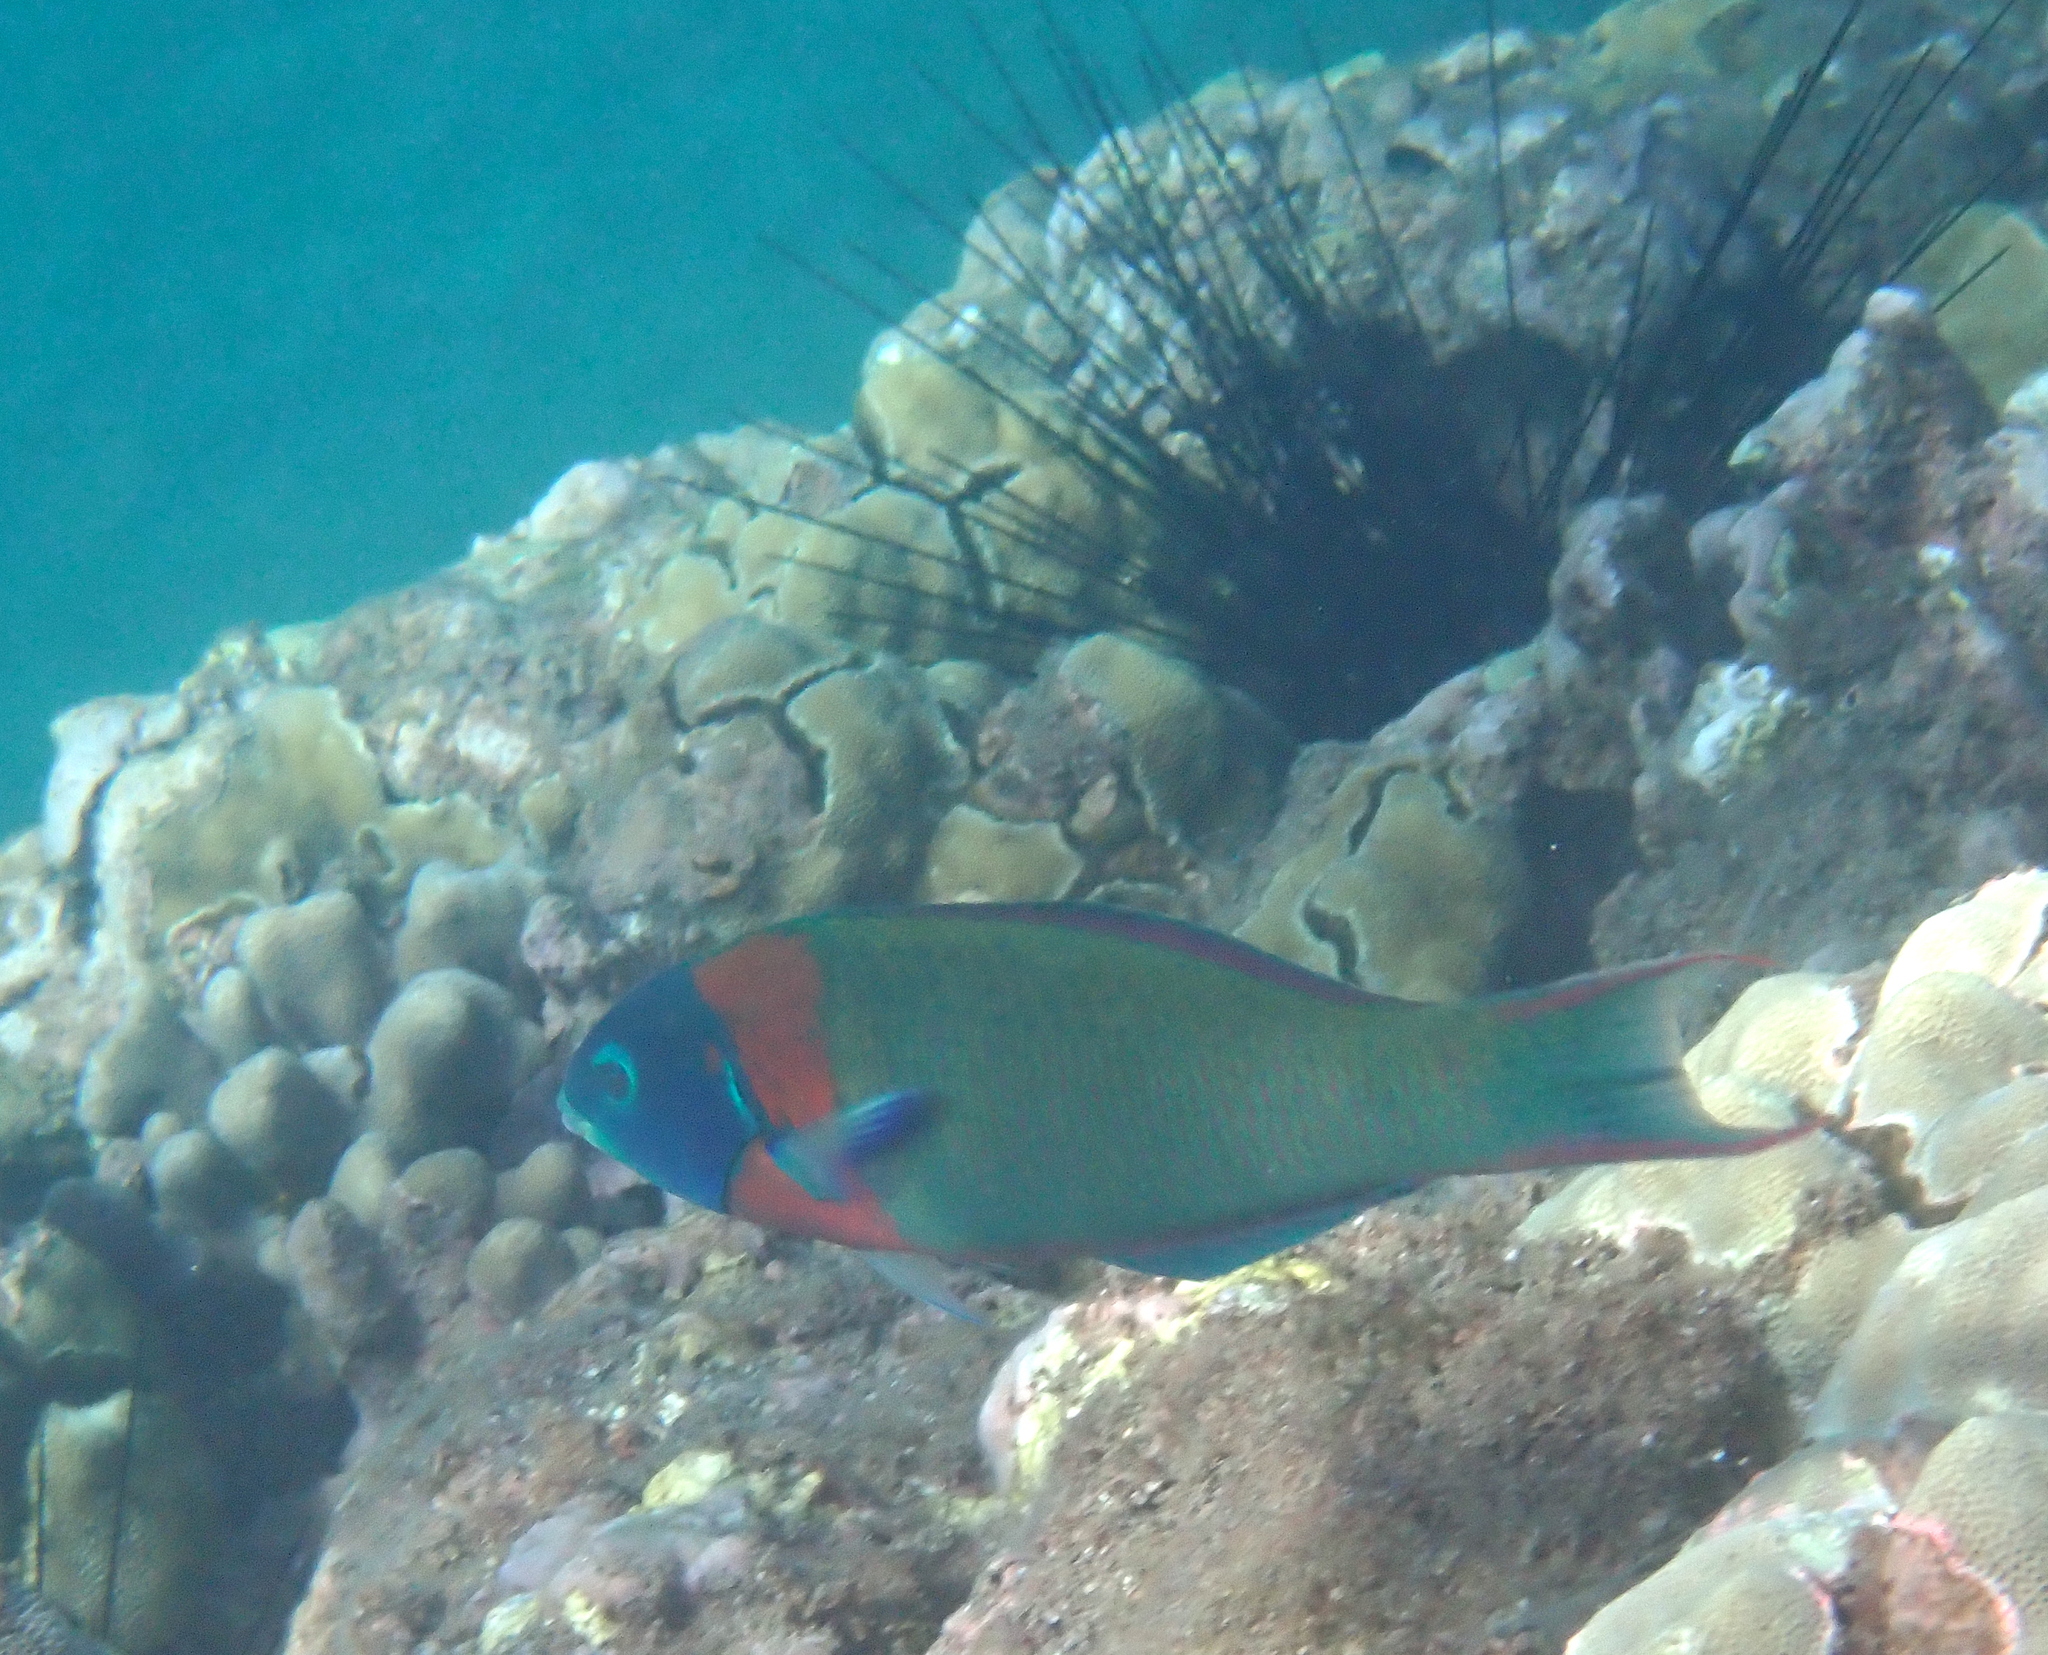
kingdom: Animalia
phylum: Chordata
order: Perciformes
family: Labridae
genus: Thalassoma
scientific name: Thalassoma duperrey
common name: Saddle wrasse
